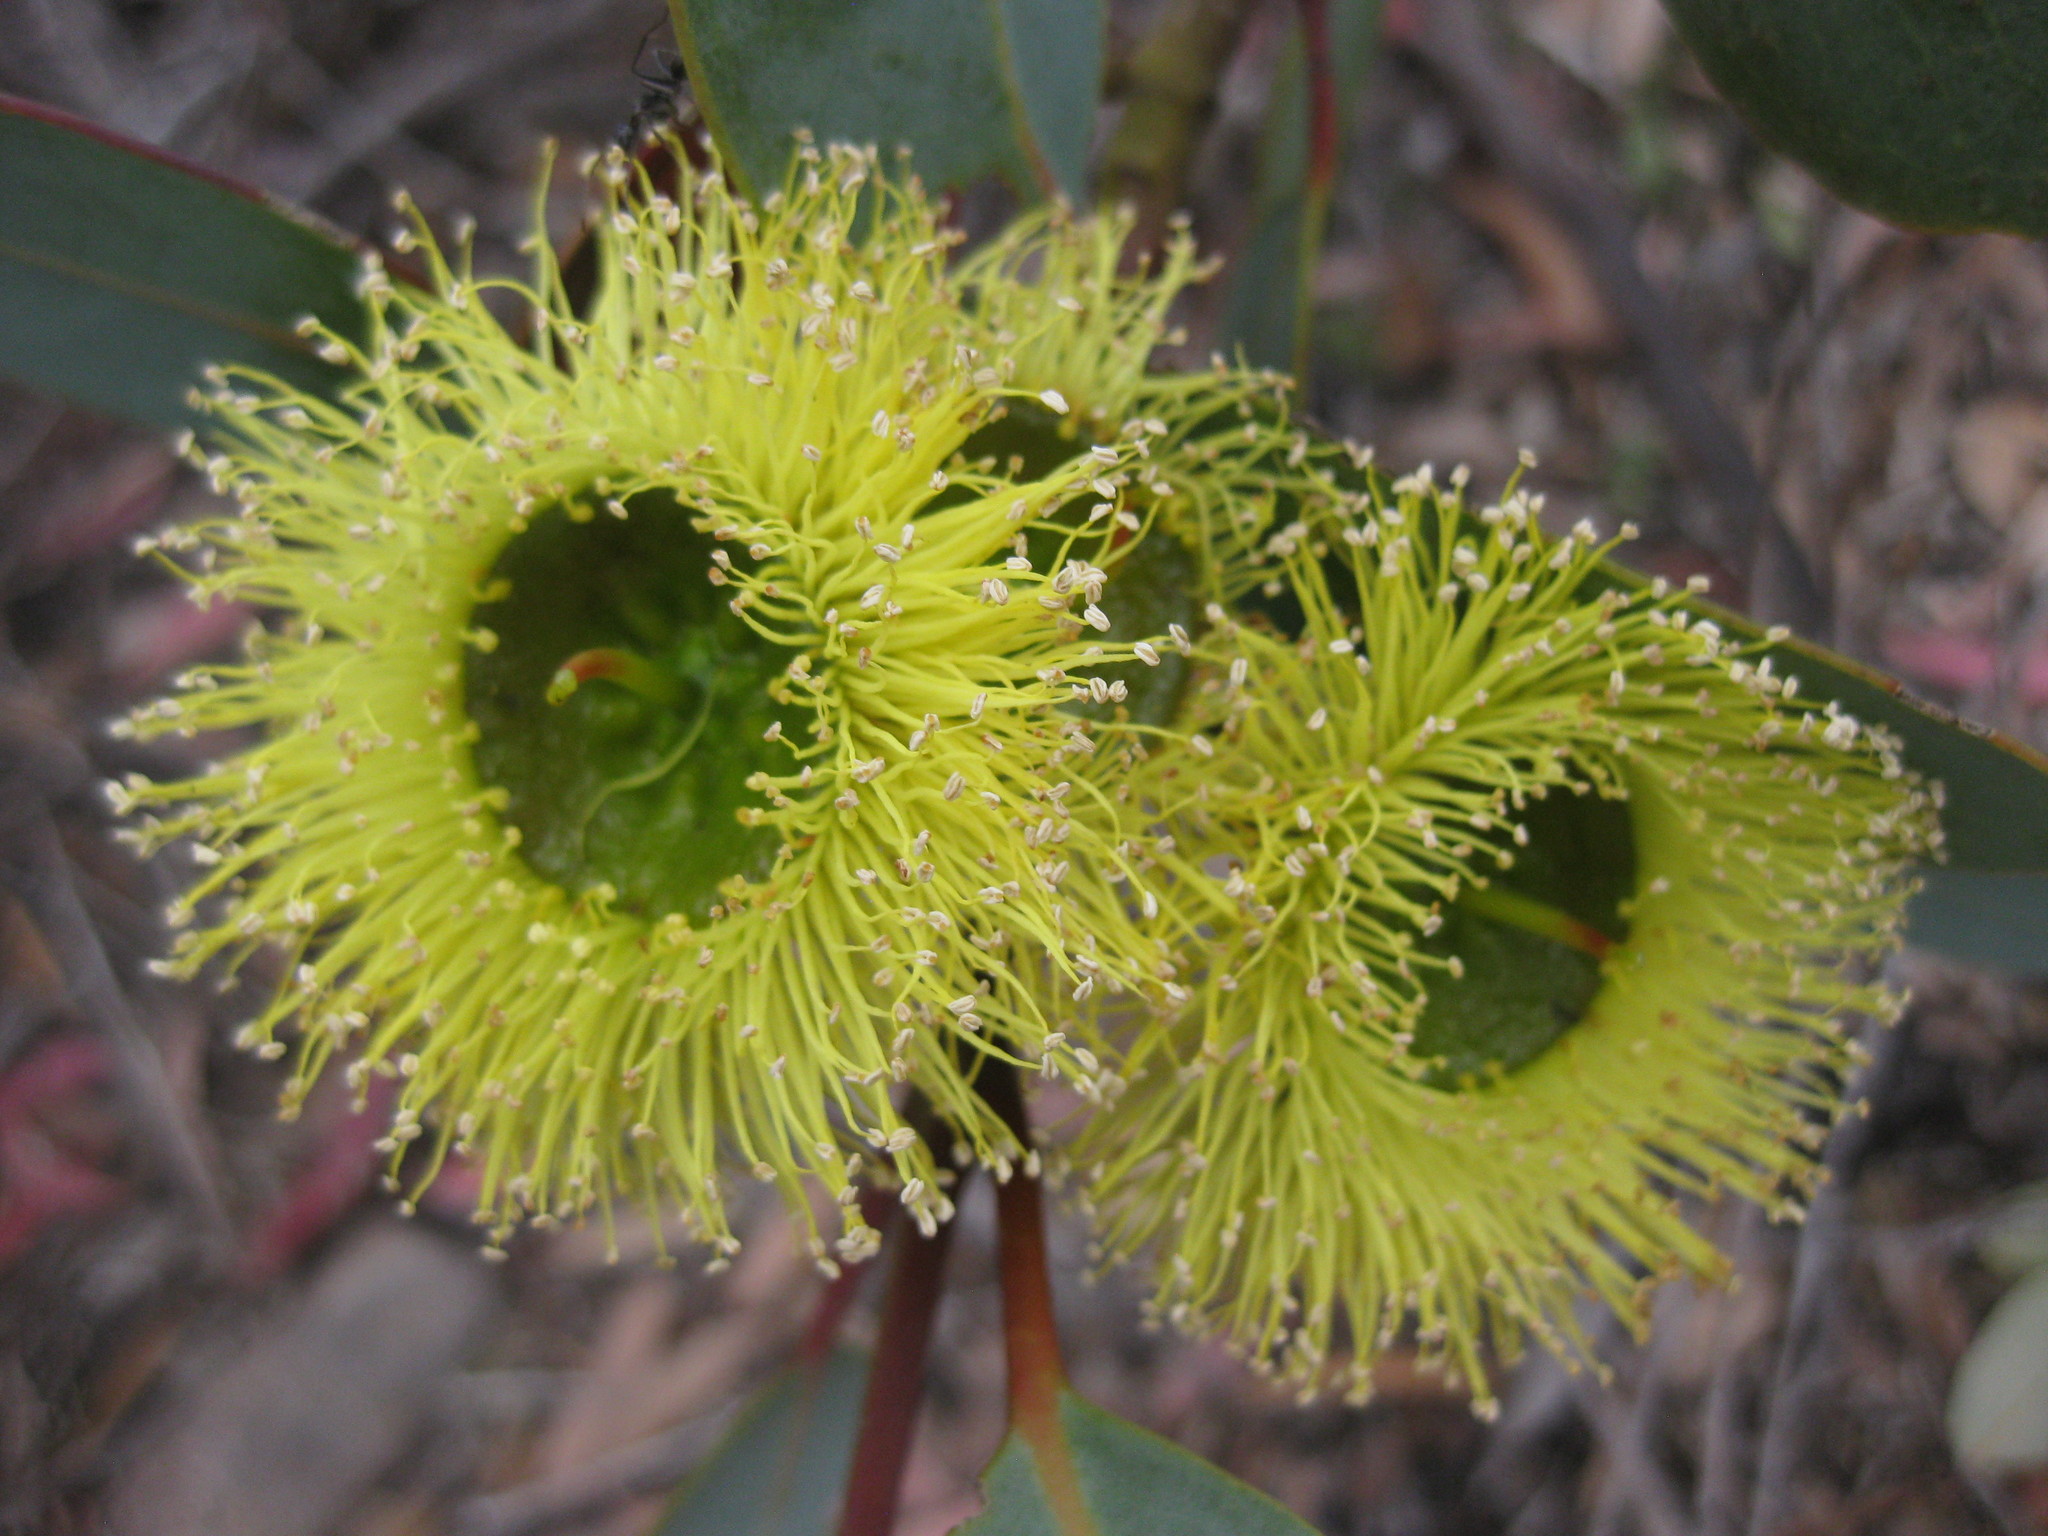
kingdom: Plantae
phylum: Tracheophyta
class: Magnoliopsida
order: Myrtales
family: Myrtaceae
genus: Eucalyptus
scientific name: Eucalyptus preissiana
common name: Stirling range mallee
